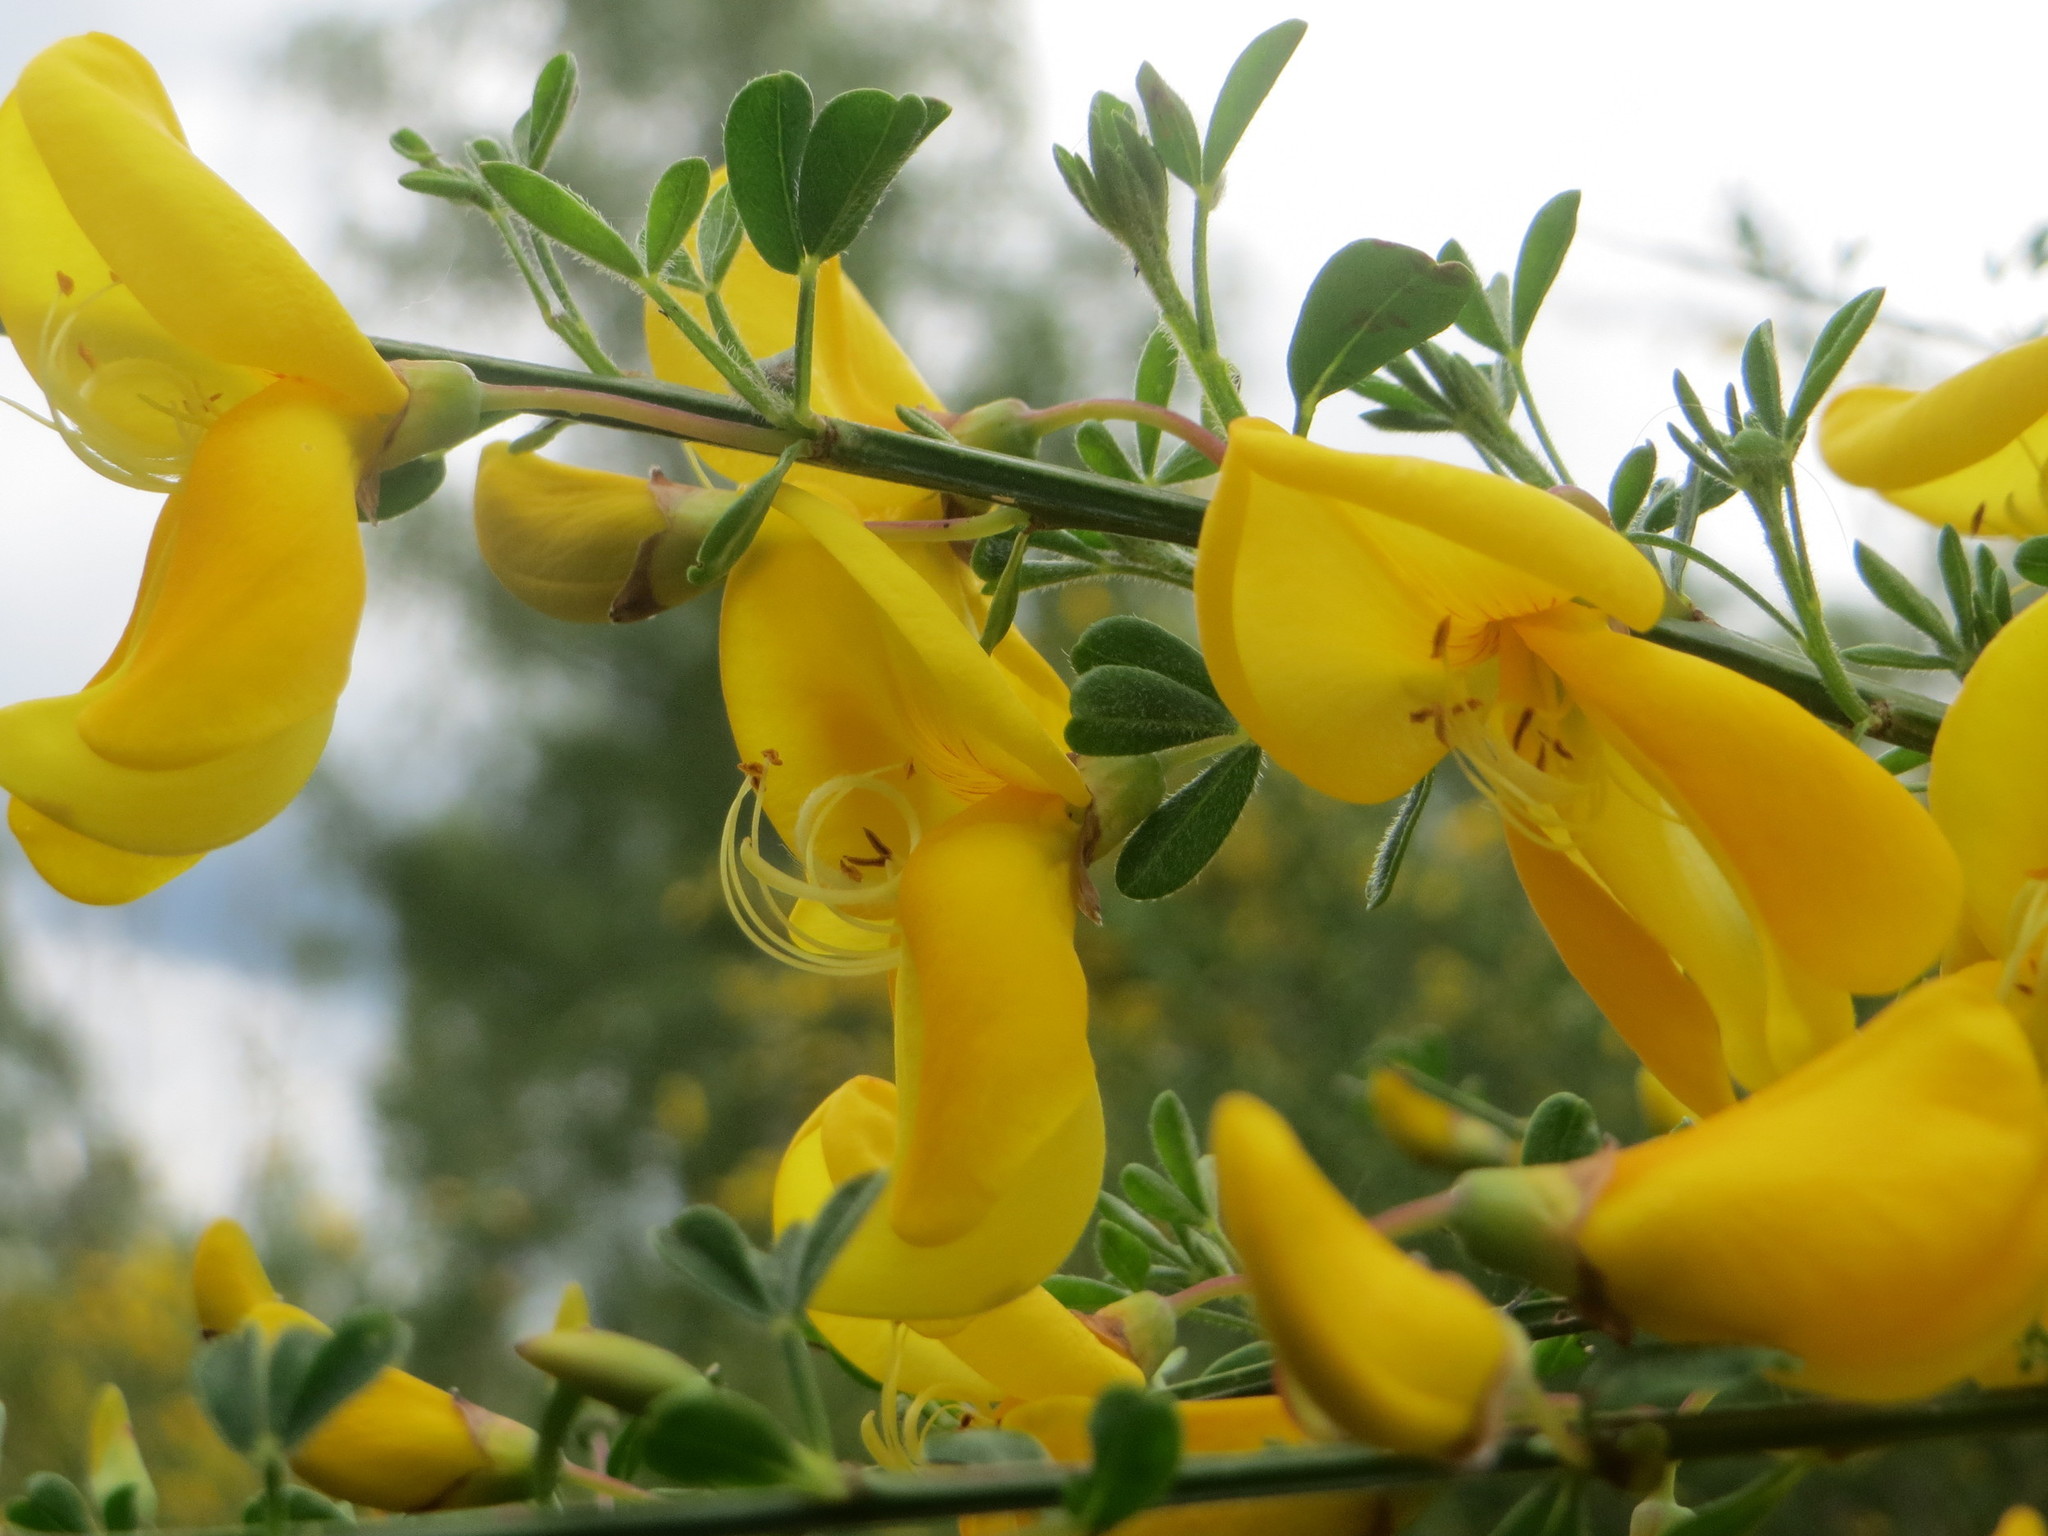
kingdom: Plantae
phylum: Tracheophyta
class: Magnoliopsida
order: Fabales
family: Fabaceae
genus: Cytisus
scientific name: Cytisus scoparius
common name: Scotch broom
